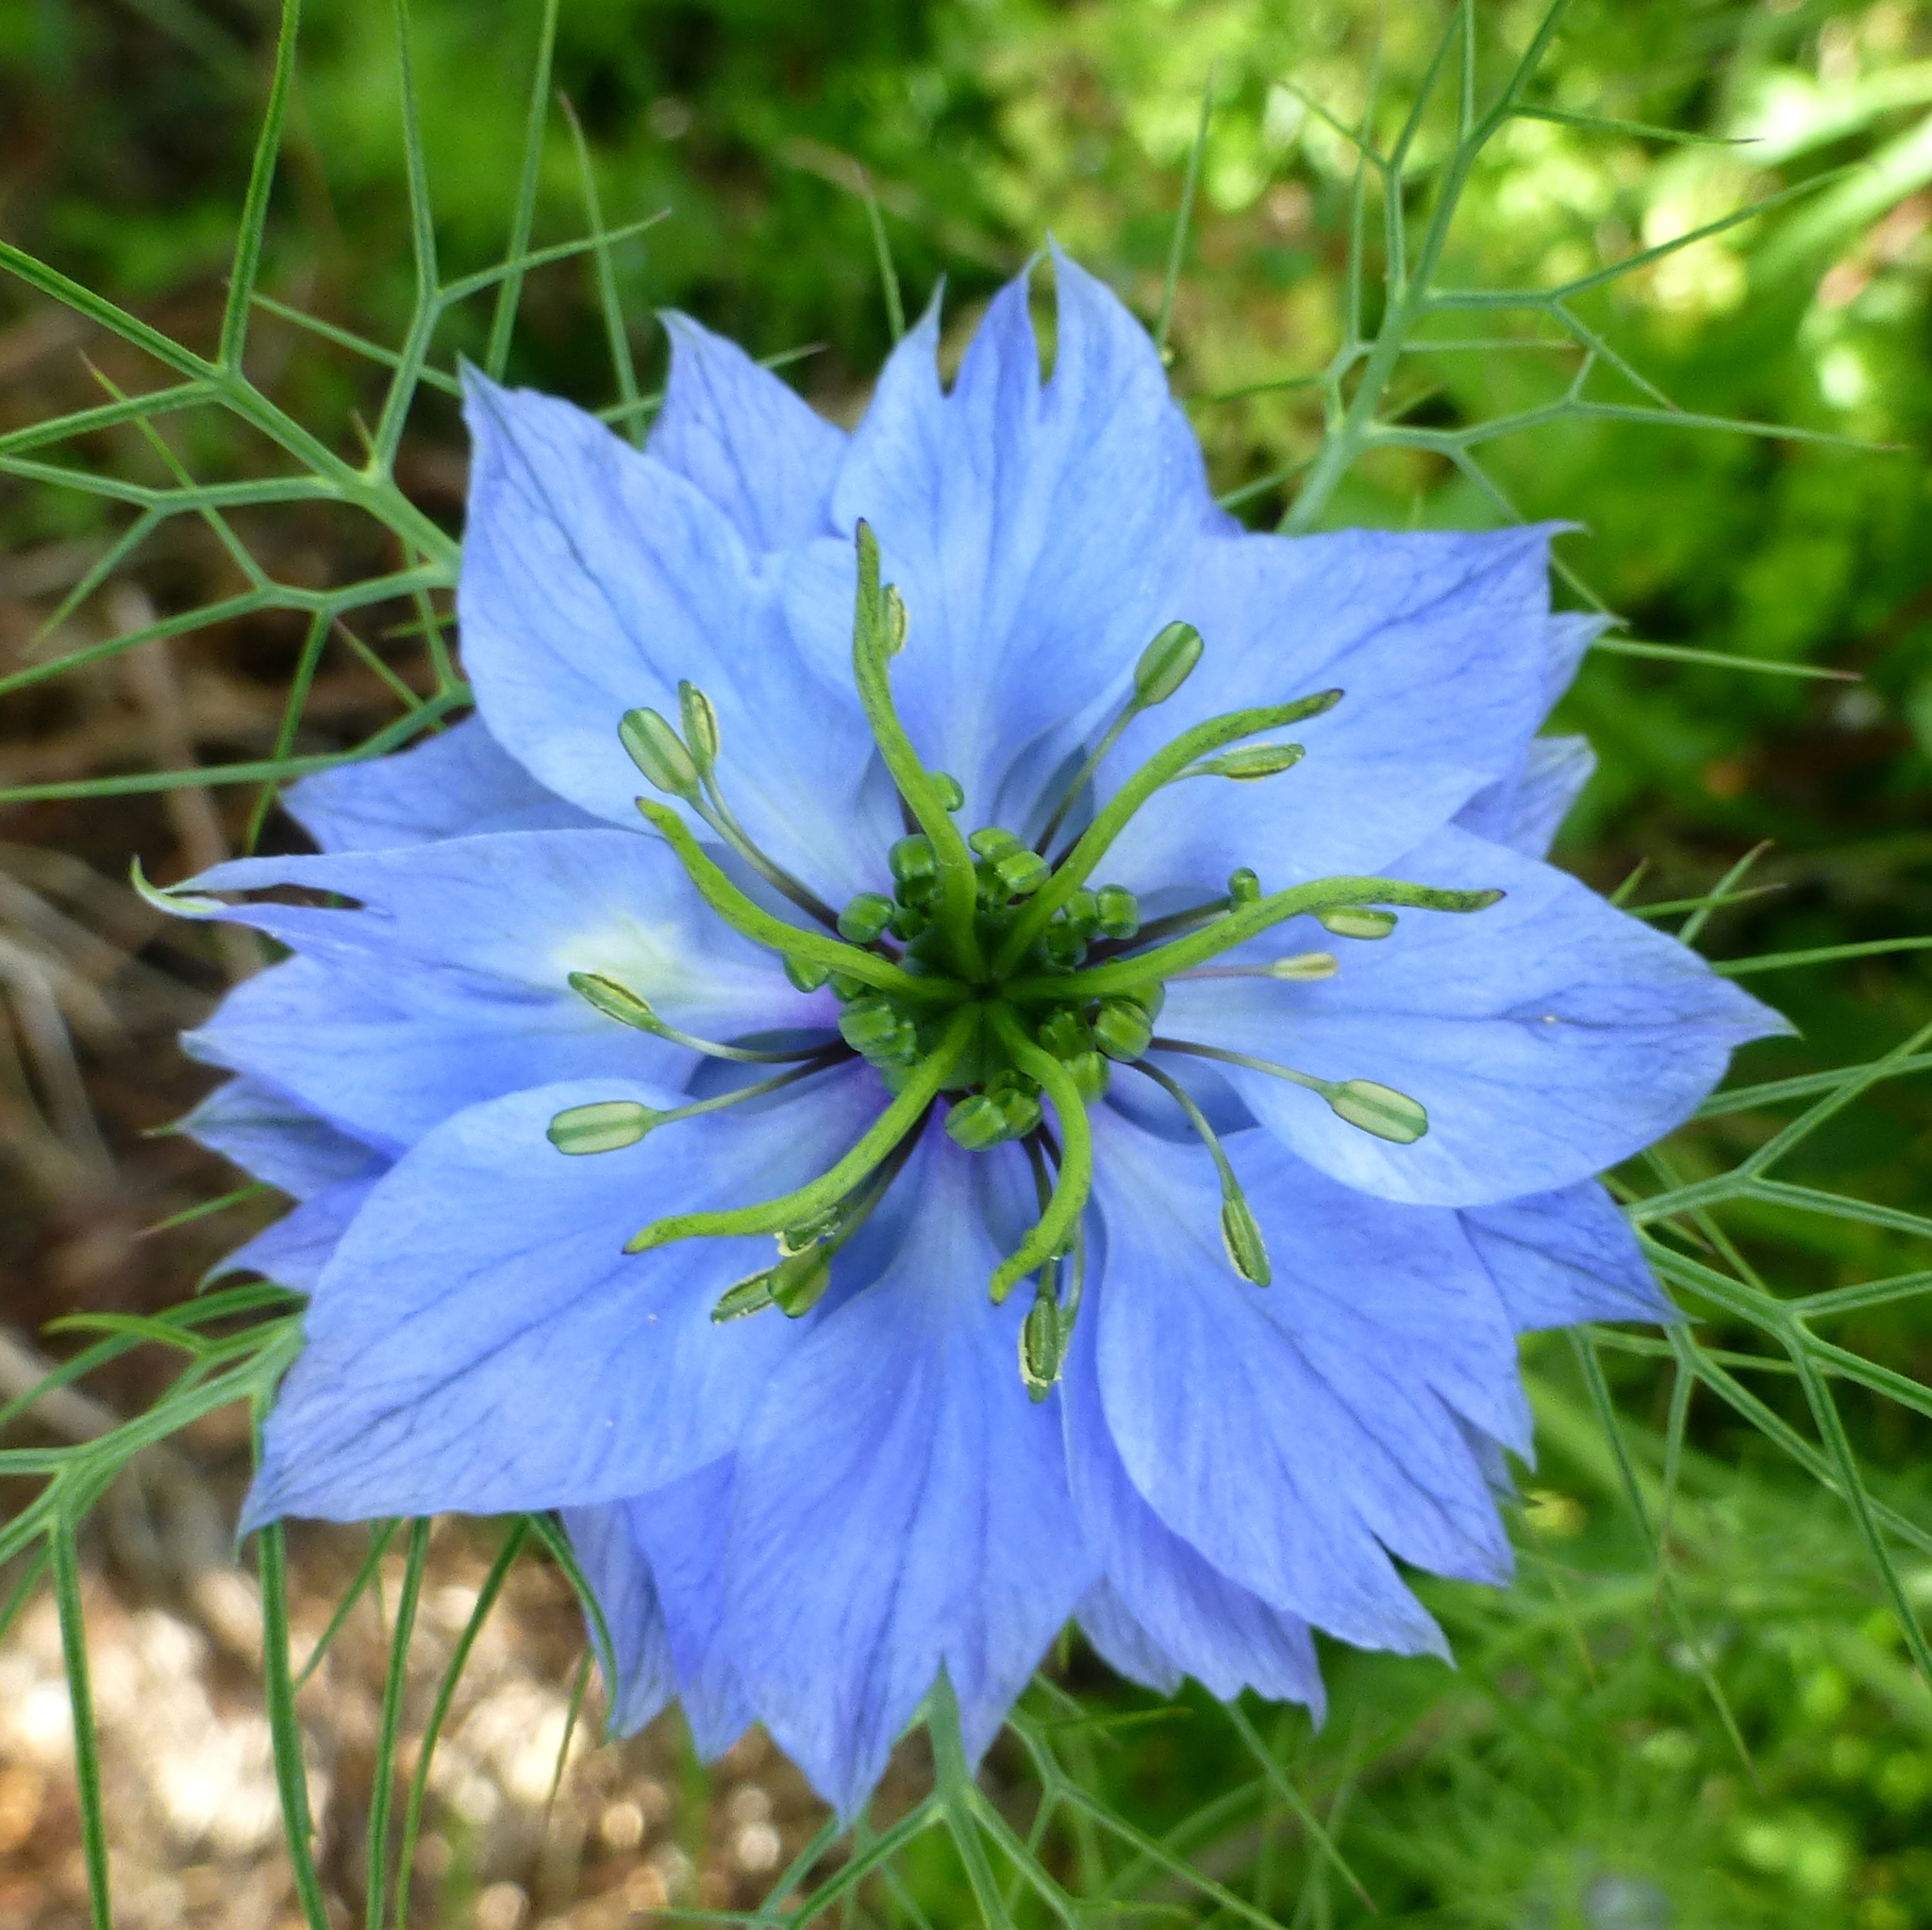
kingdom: Plantae
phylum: Tracheophyta
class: Magnoliopsida
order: Ranunculales
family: Ranunculaceae
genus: Nigella
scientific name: Nigella damascena
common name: Love-in-a-mist
